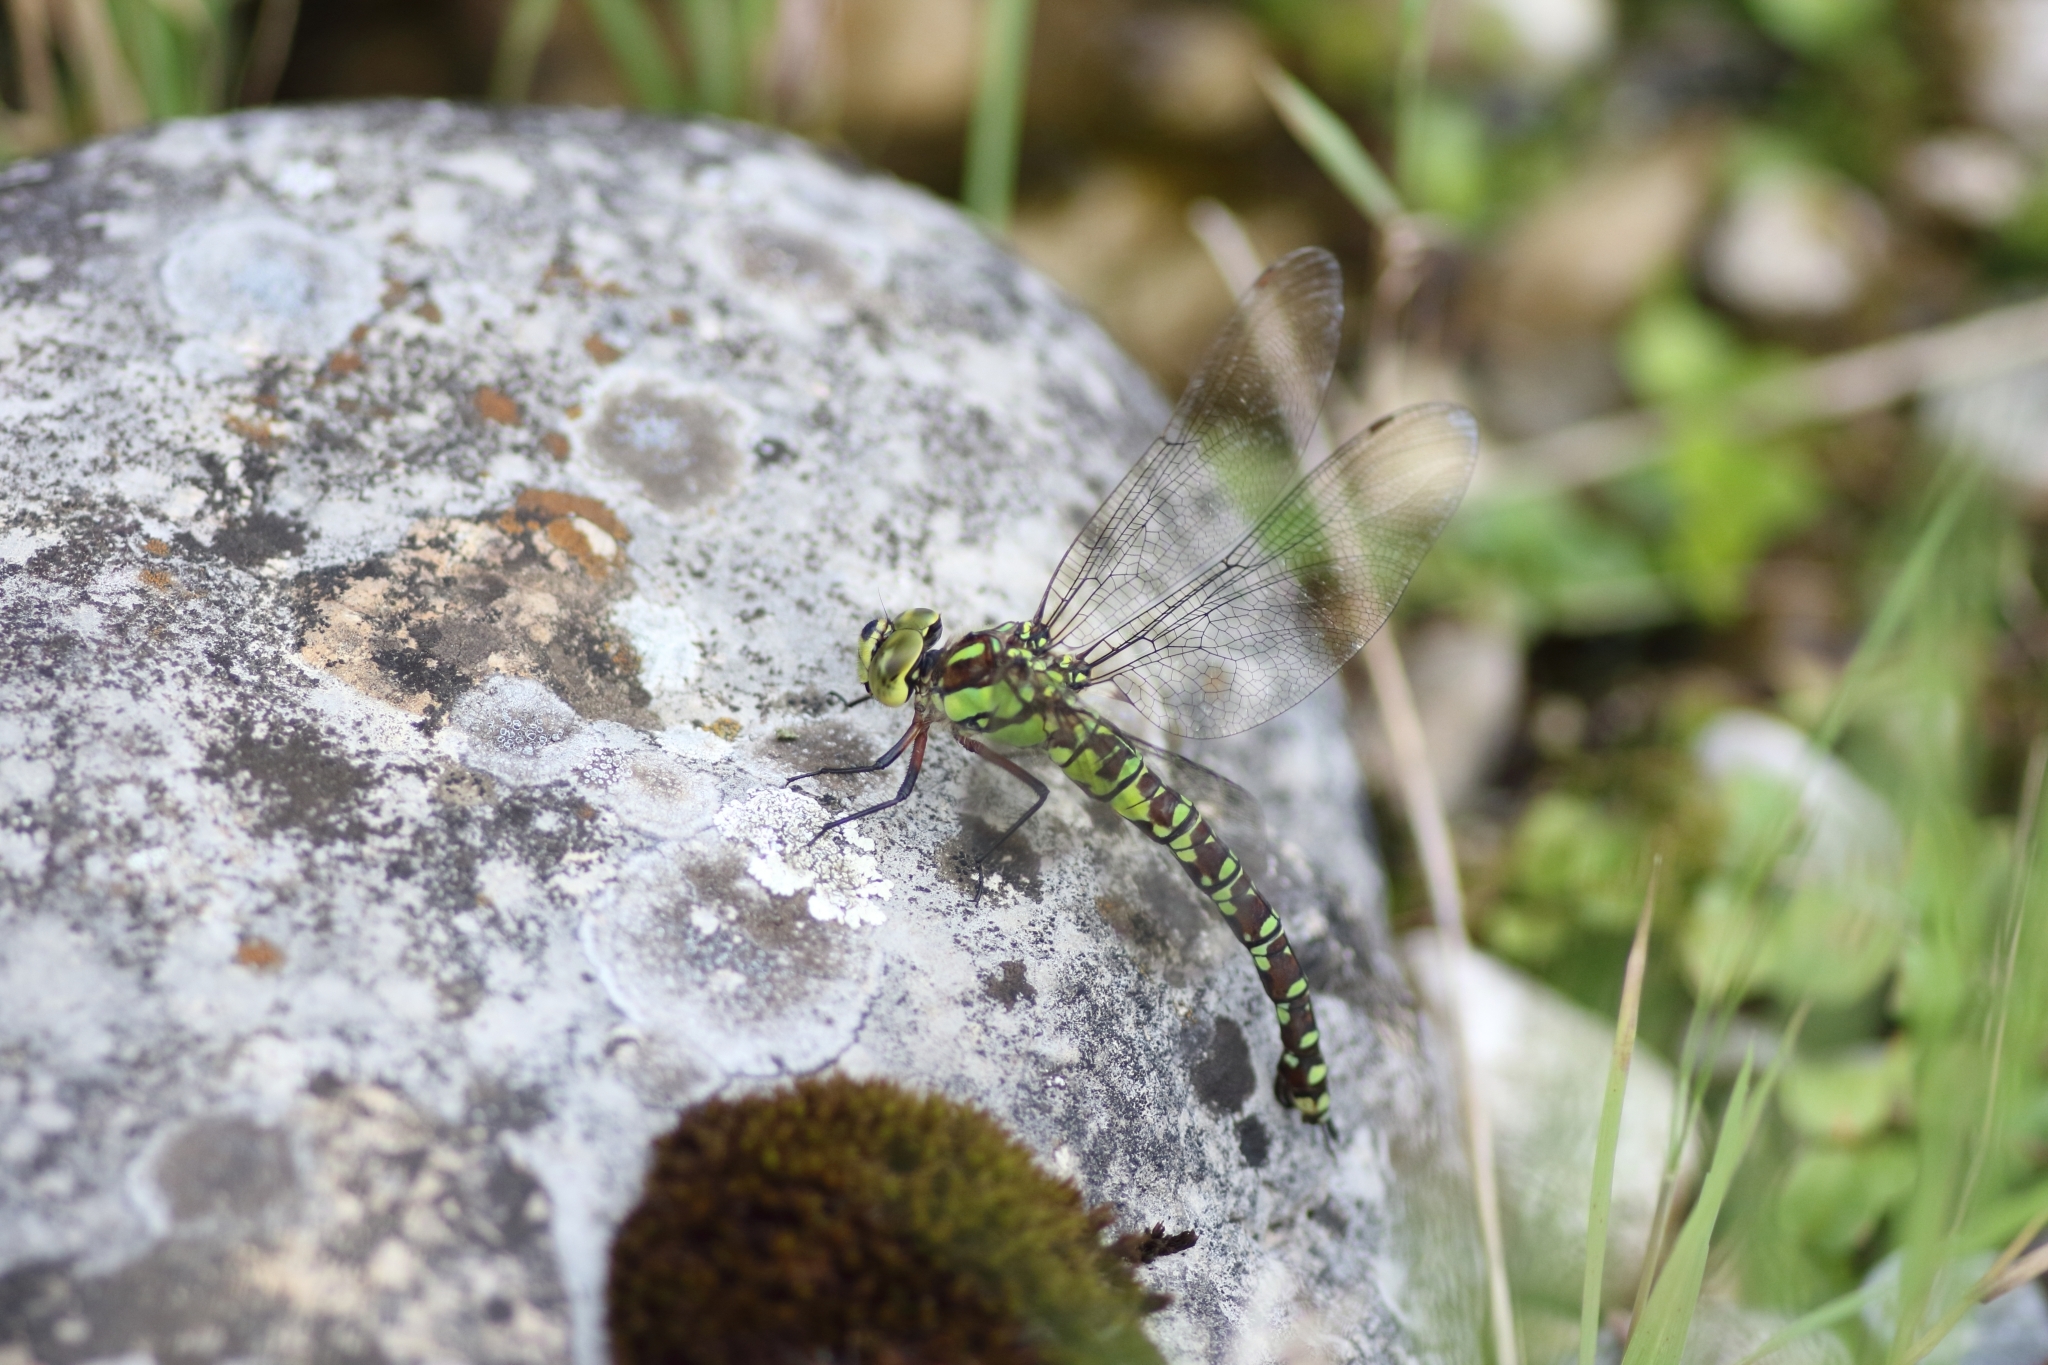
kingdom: Animalia
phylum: Arthropoda
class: Insecta
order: Odonata
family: Aeshnidae
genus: Aeshna
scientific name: Aeshna cyanea
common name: Southern hawker
